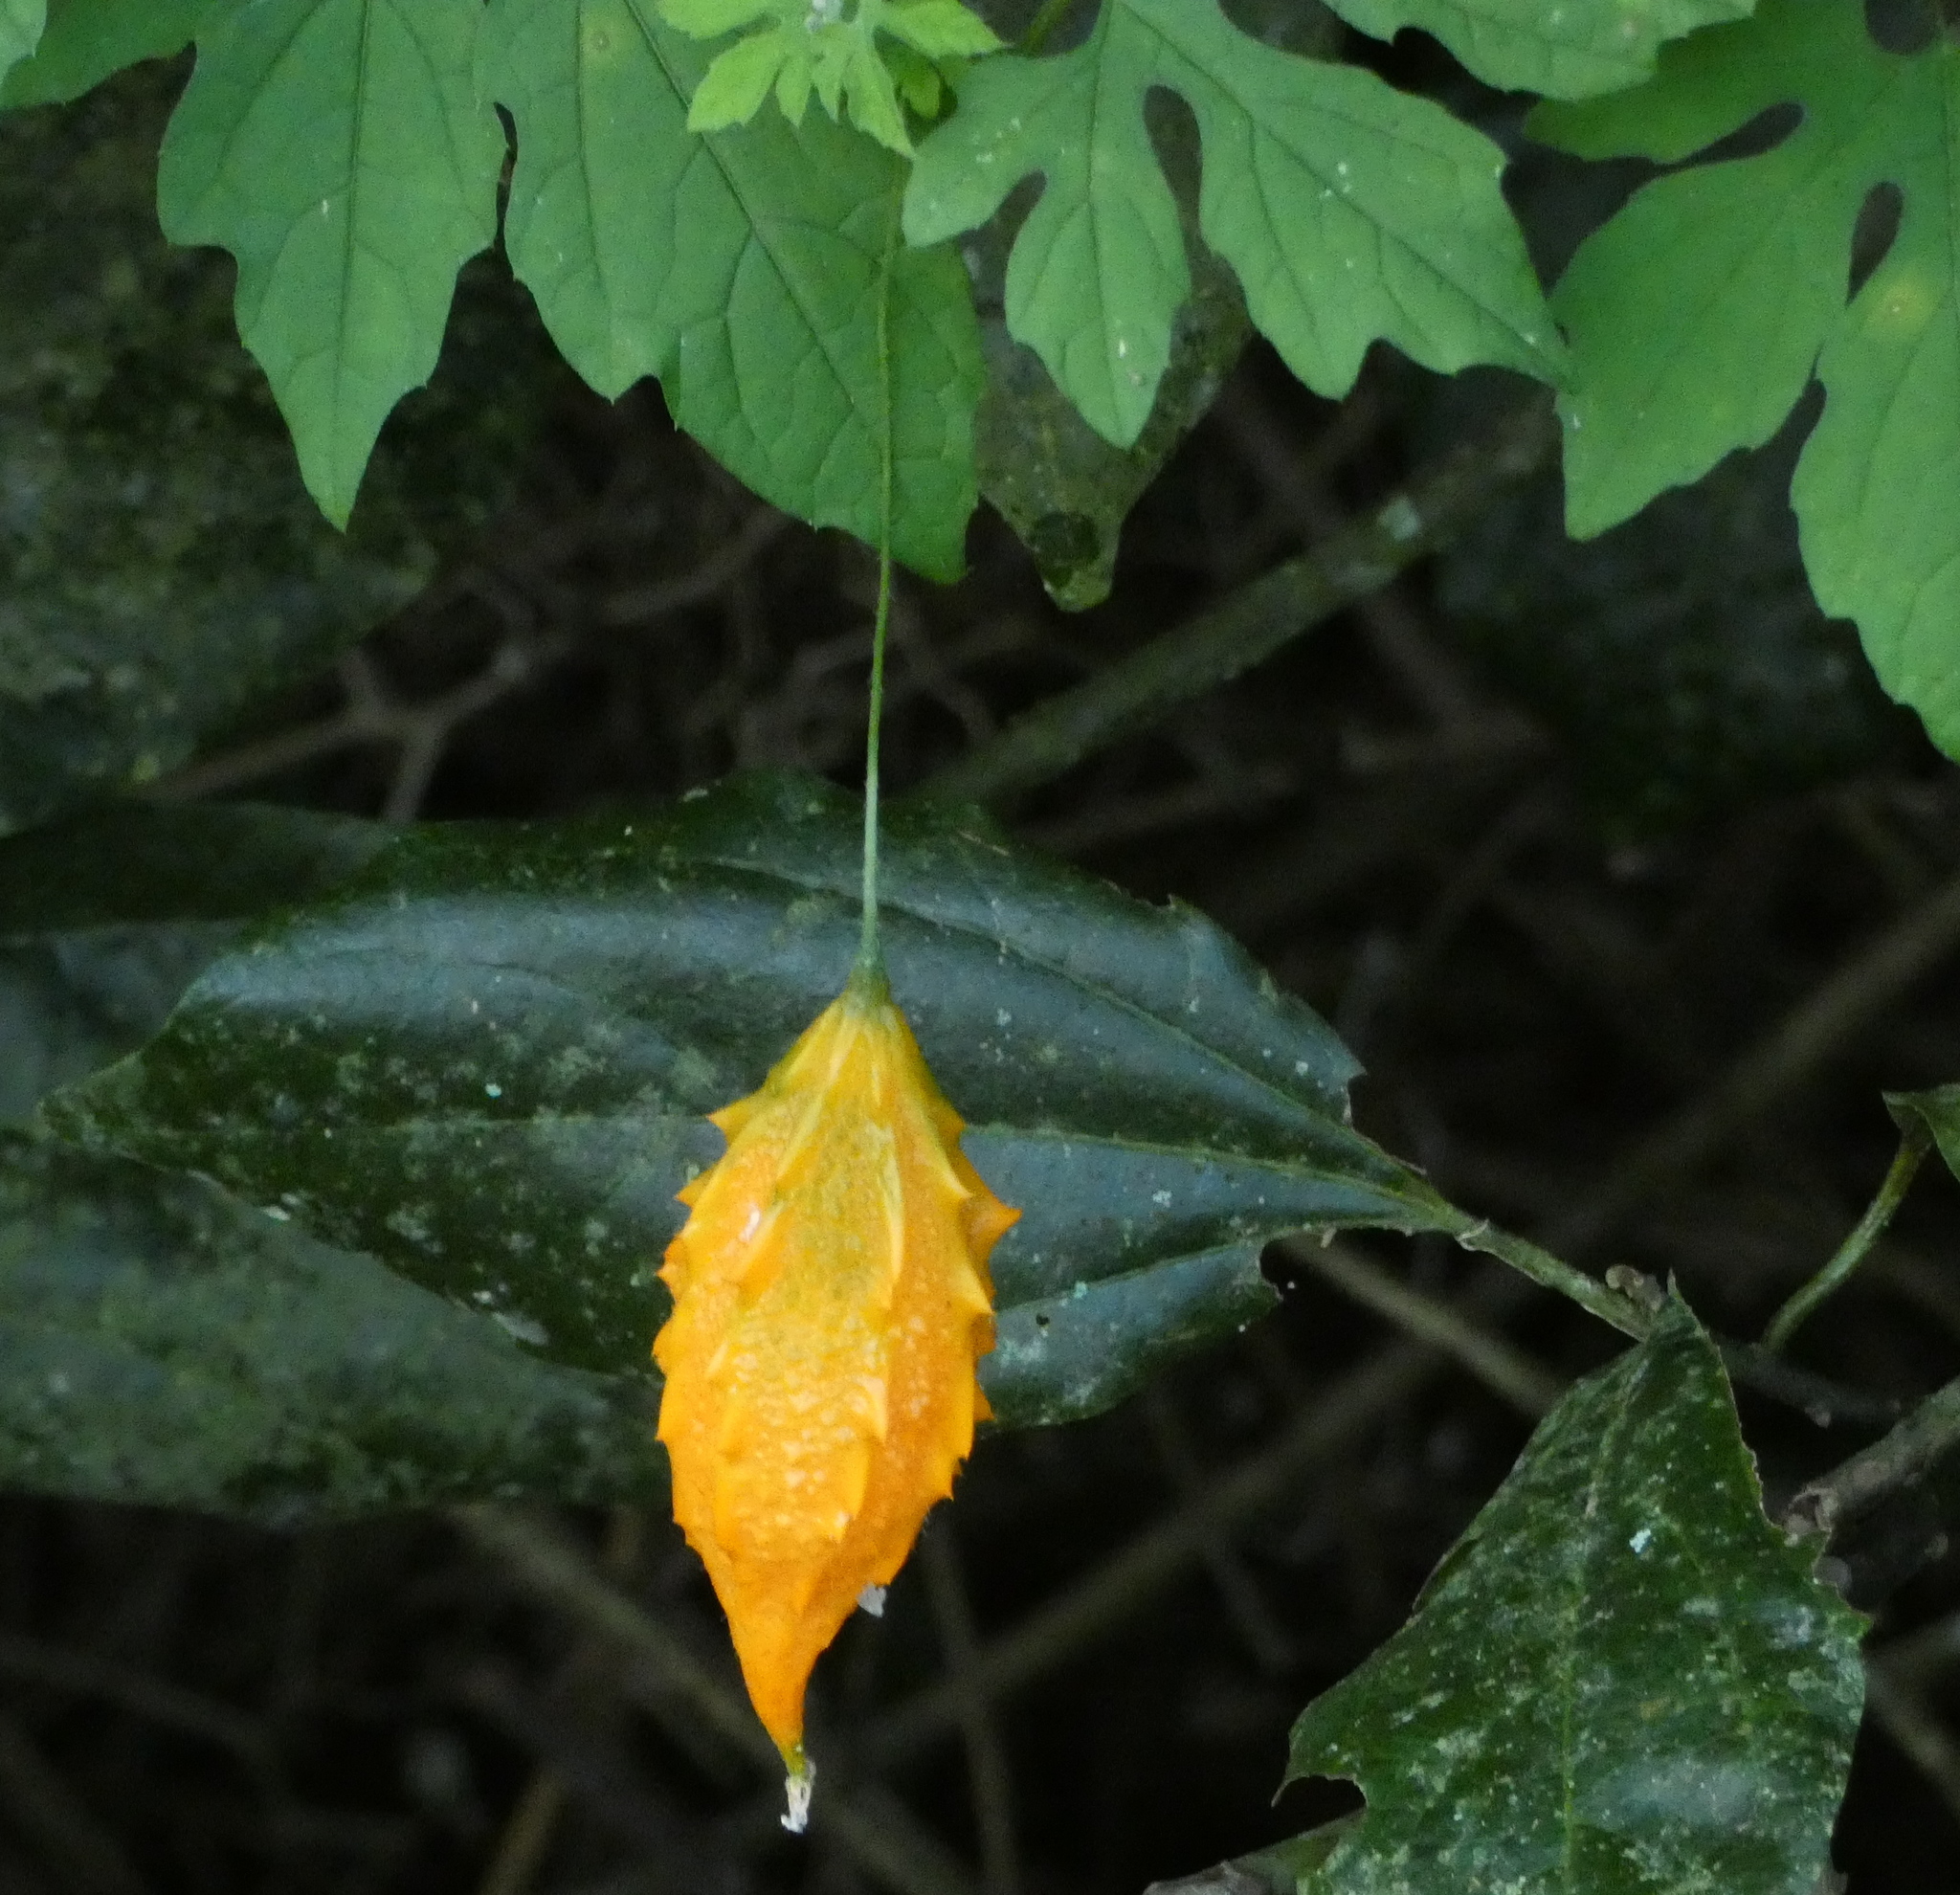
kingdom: Plantae
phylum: Tracheophyta
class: Magnoliopsida
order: Cucurbitales
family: Cucurbitaceae
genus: Momordica
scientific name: Momordica charantia
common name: Balsampear
